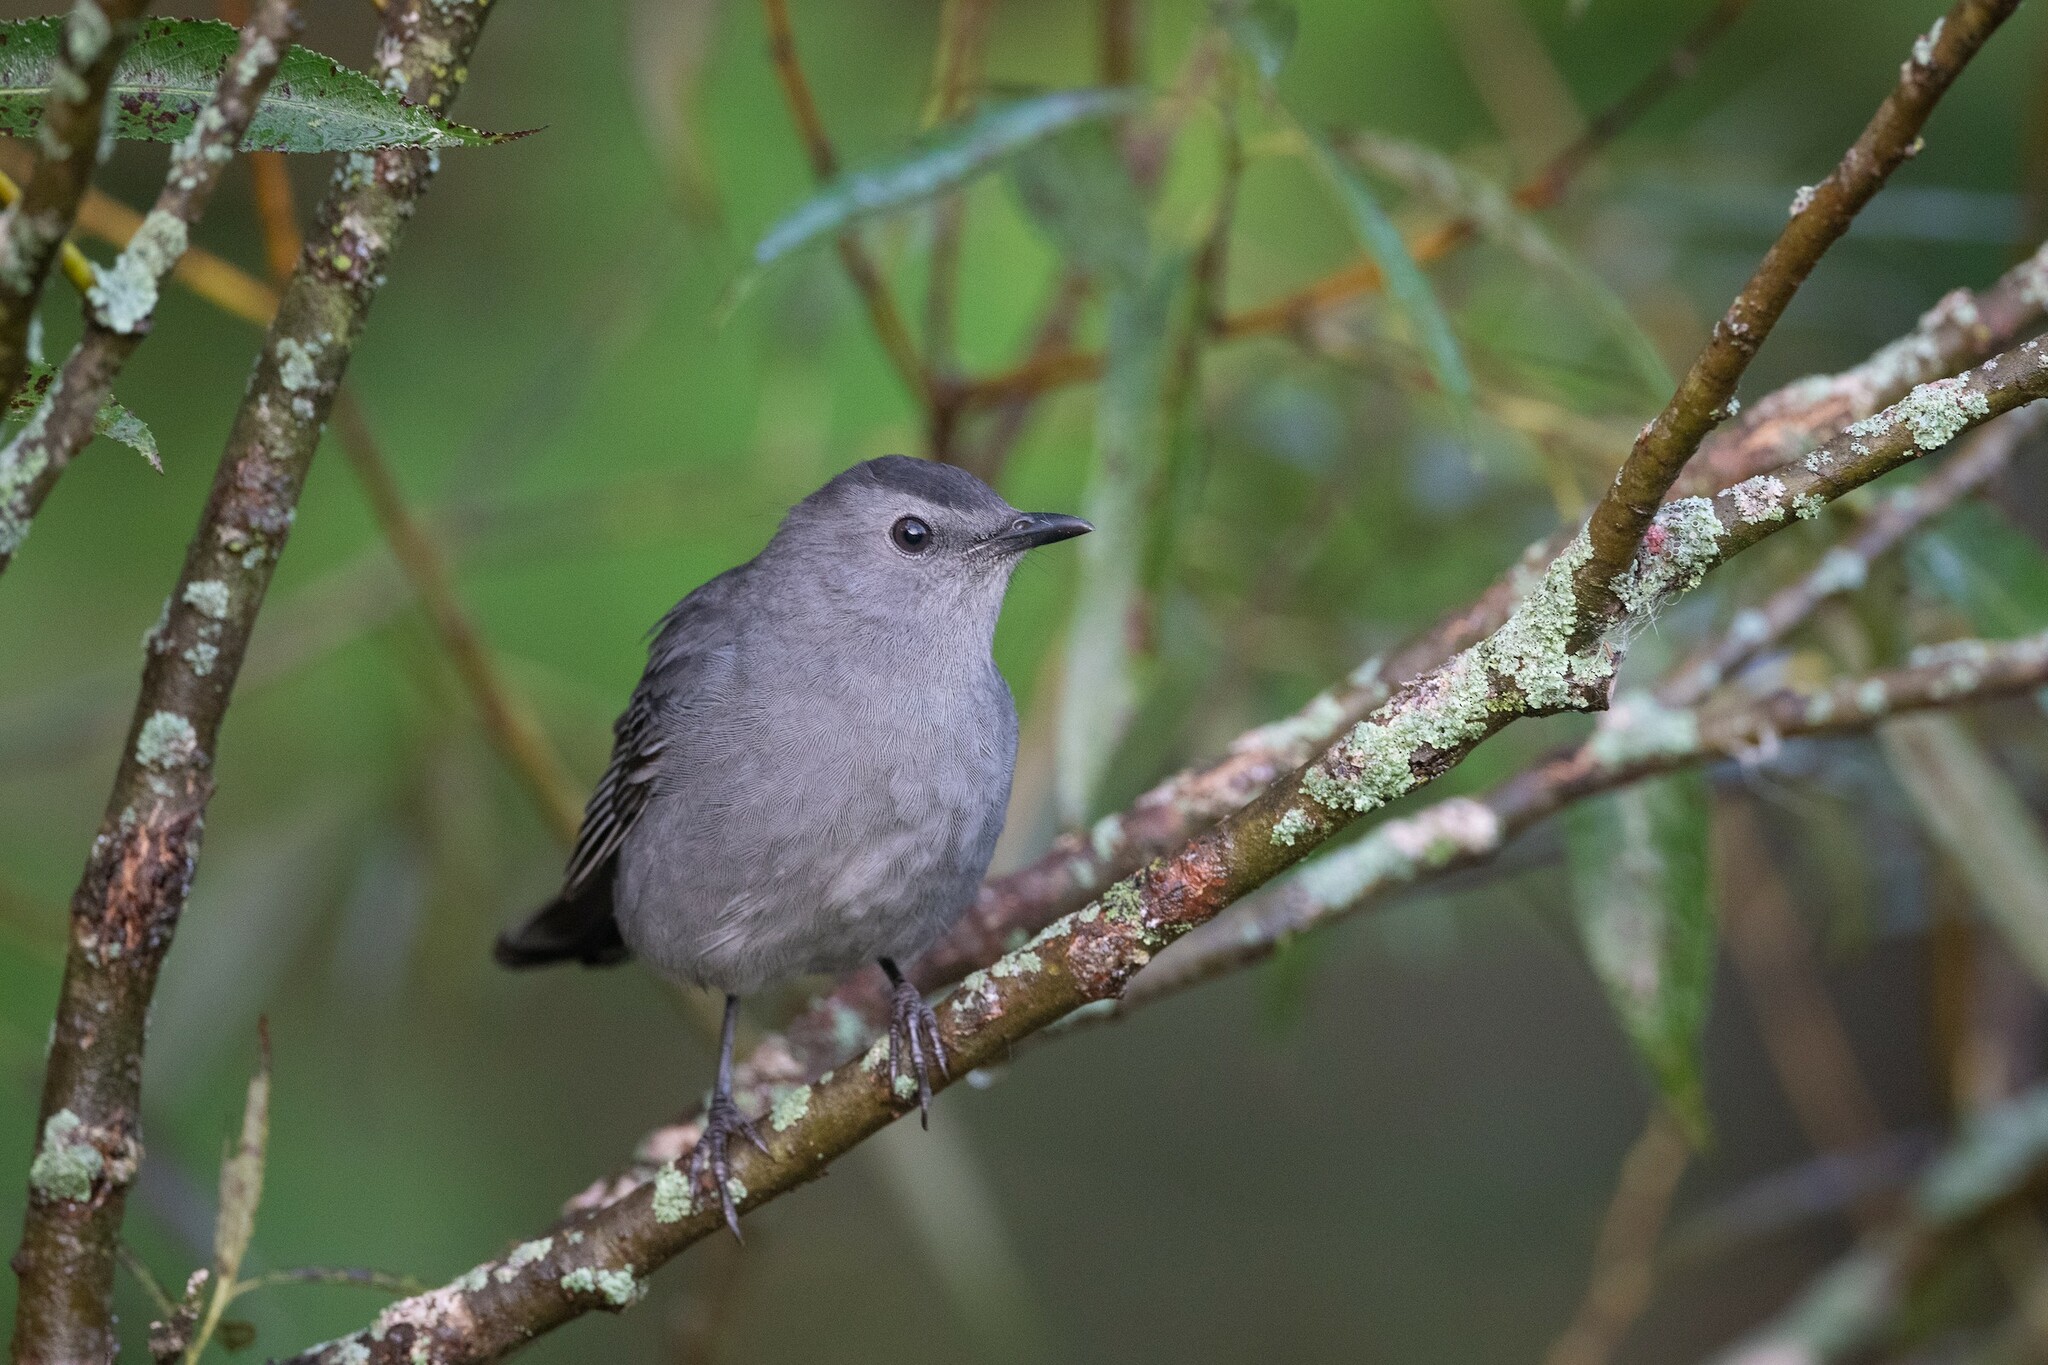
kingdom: Animalia
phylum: Chordata
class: Aves
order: Passeriformes
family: Mimidae
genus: Dumetella
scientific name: Dumetella carolinensis
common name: Gray catbird
